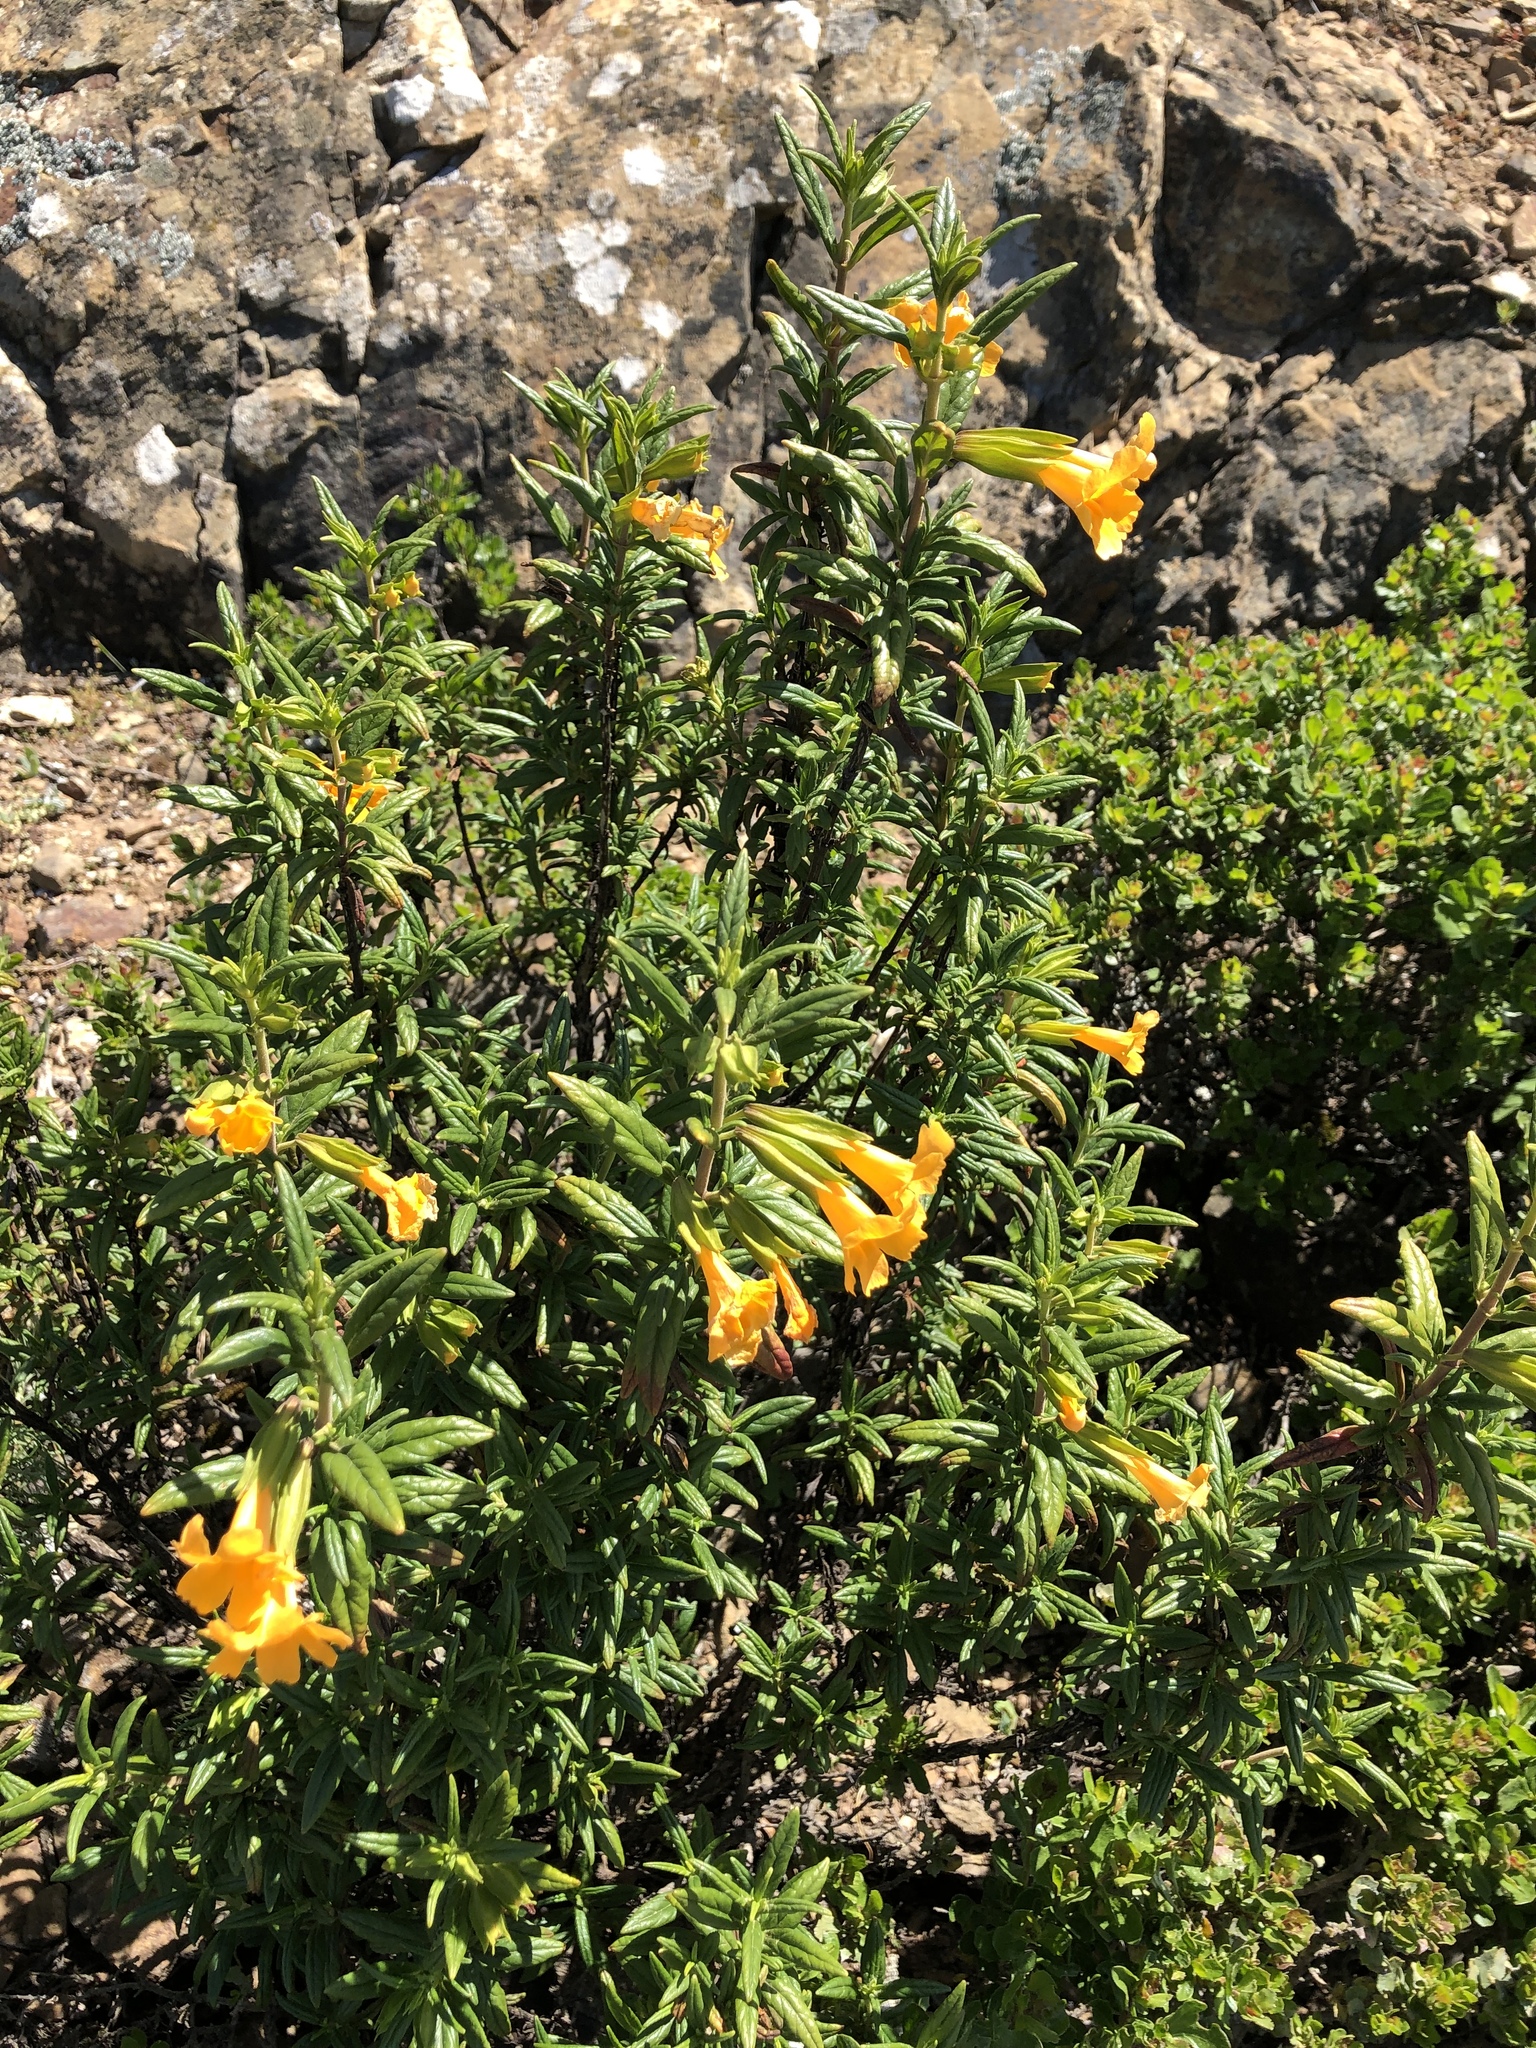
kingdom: Plantae
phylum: Tracheophyta
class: Magnoliopsida
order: Lamiales
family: Phrymaceae
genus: Diplacus
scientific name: Diplacus aurantiacus
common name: Bush monkey-flower
